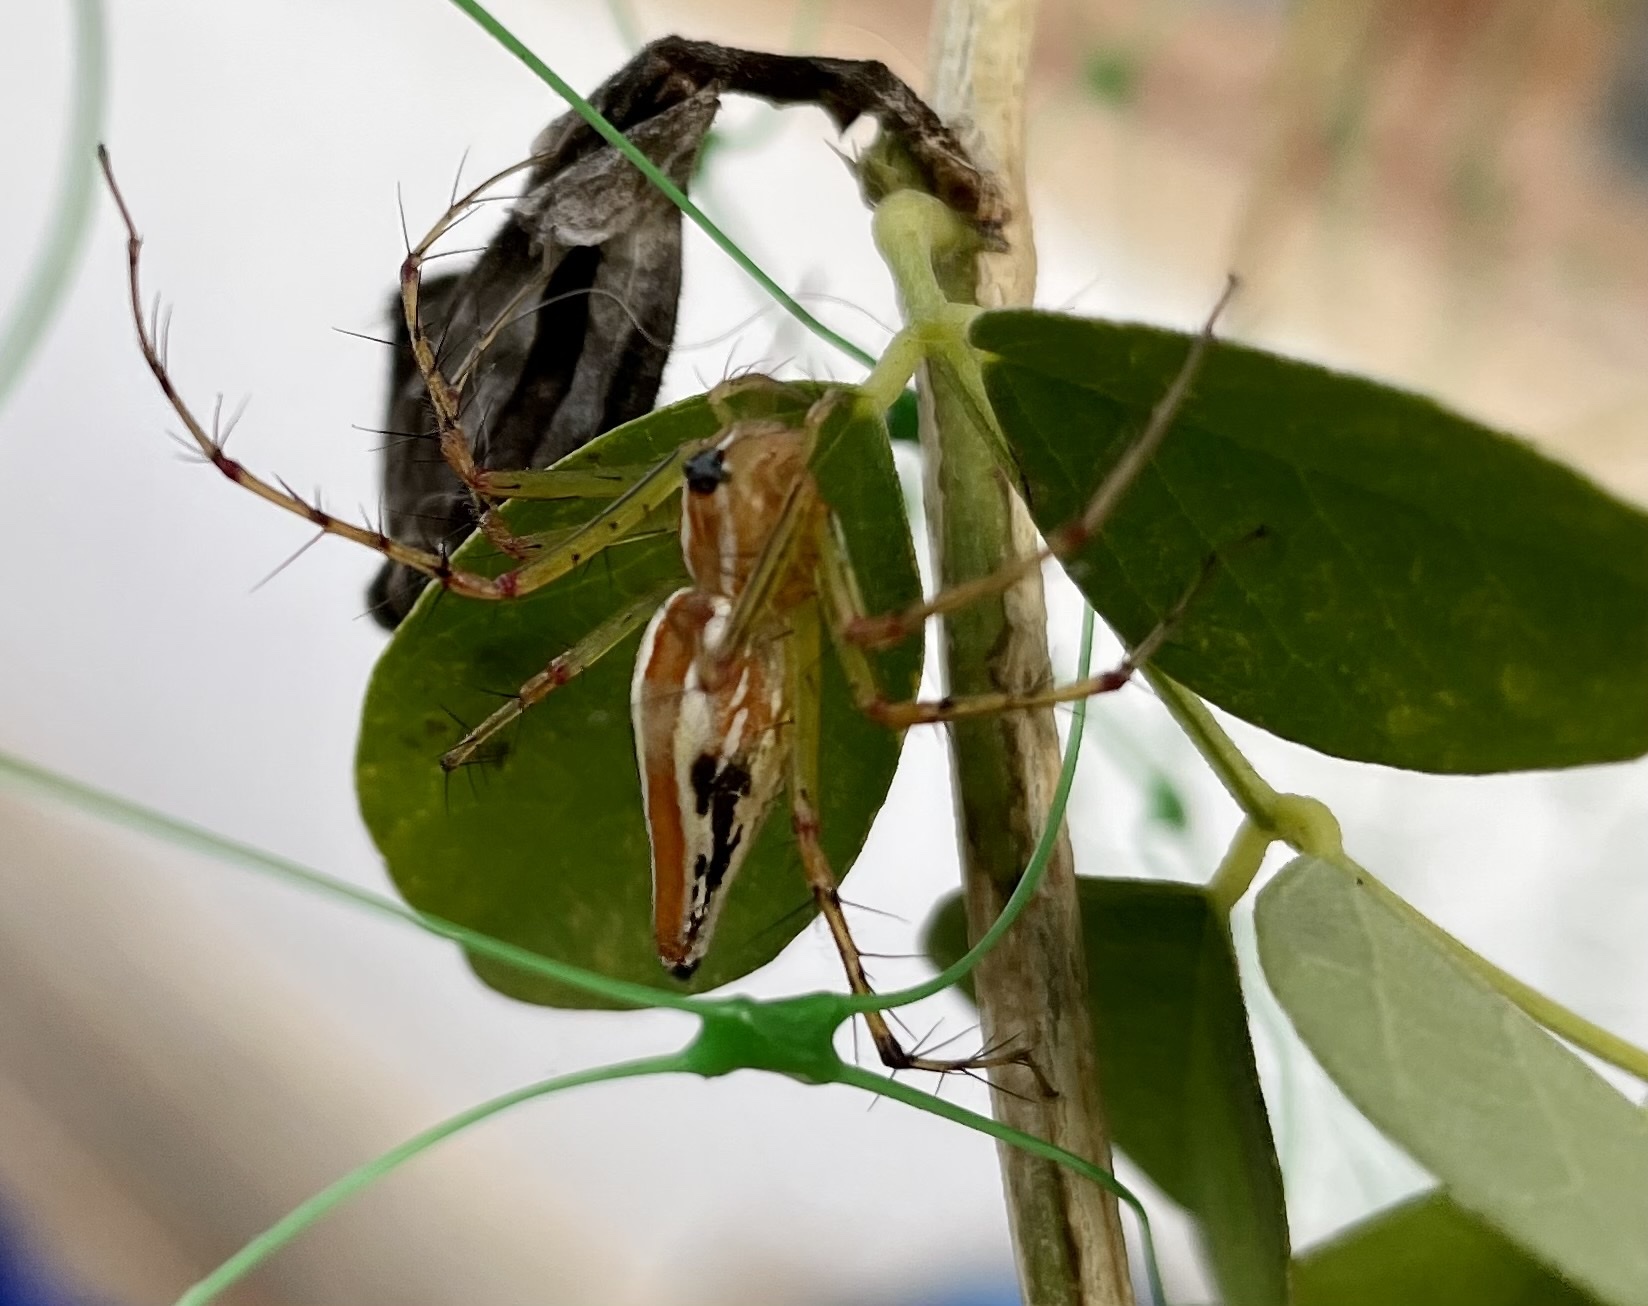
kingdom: Animalia
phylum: Arthropoda
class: Arachnida
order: Araneae
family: Oxyopidae
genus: Oxyopes
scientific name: Oxyopes bharatae
